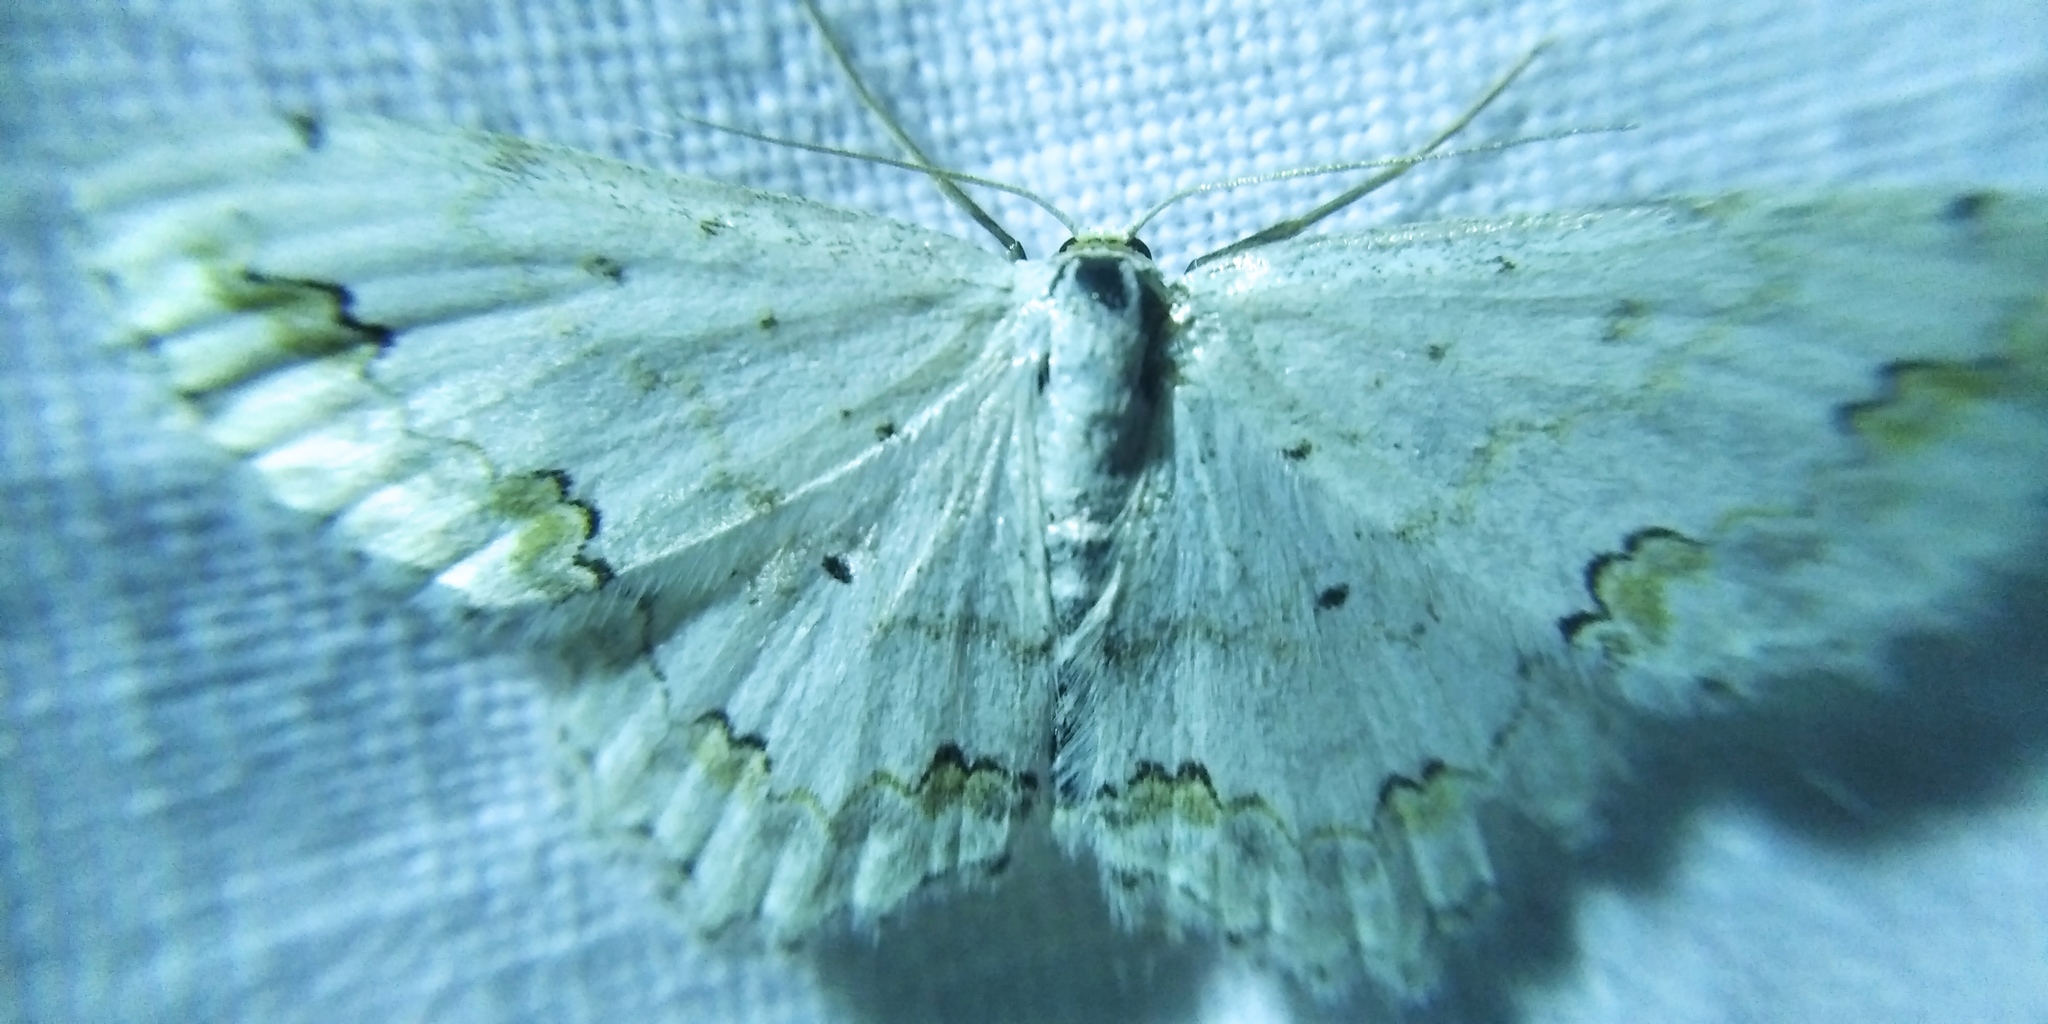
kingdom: Animalia
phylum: Arthropoda
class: Insecta
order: Lepidoptera
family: Geometridae
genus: Scopula
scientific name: Scopula ornata
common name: Lace border
